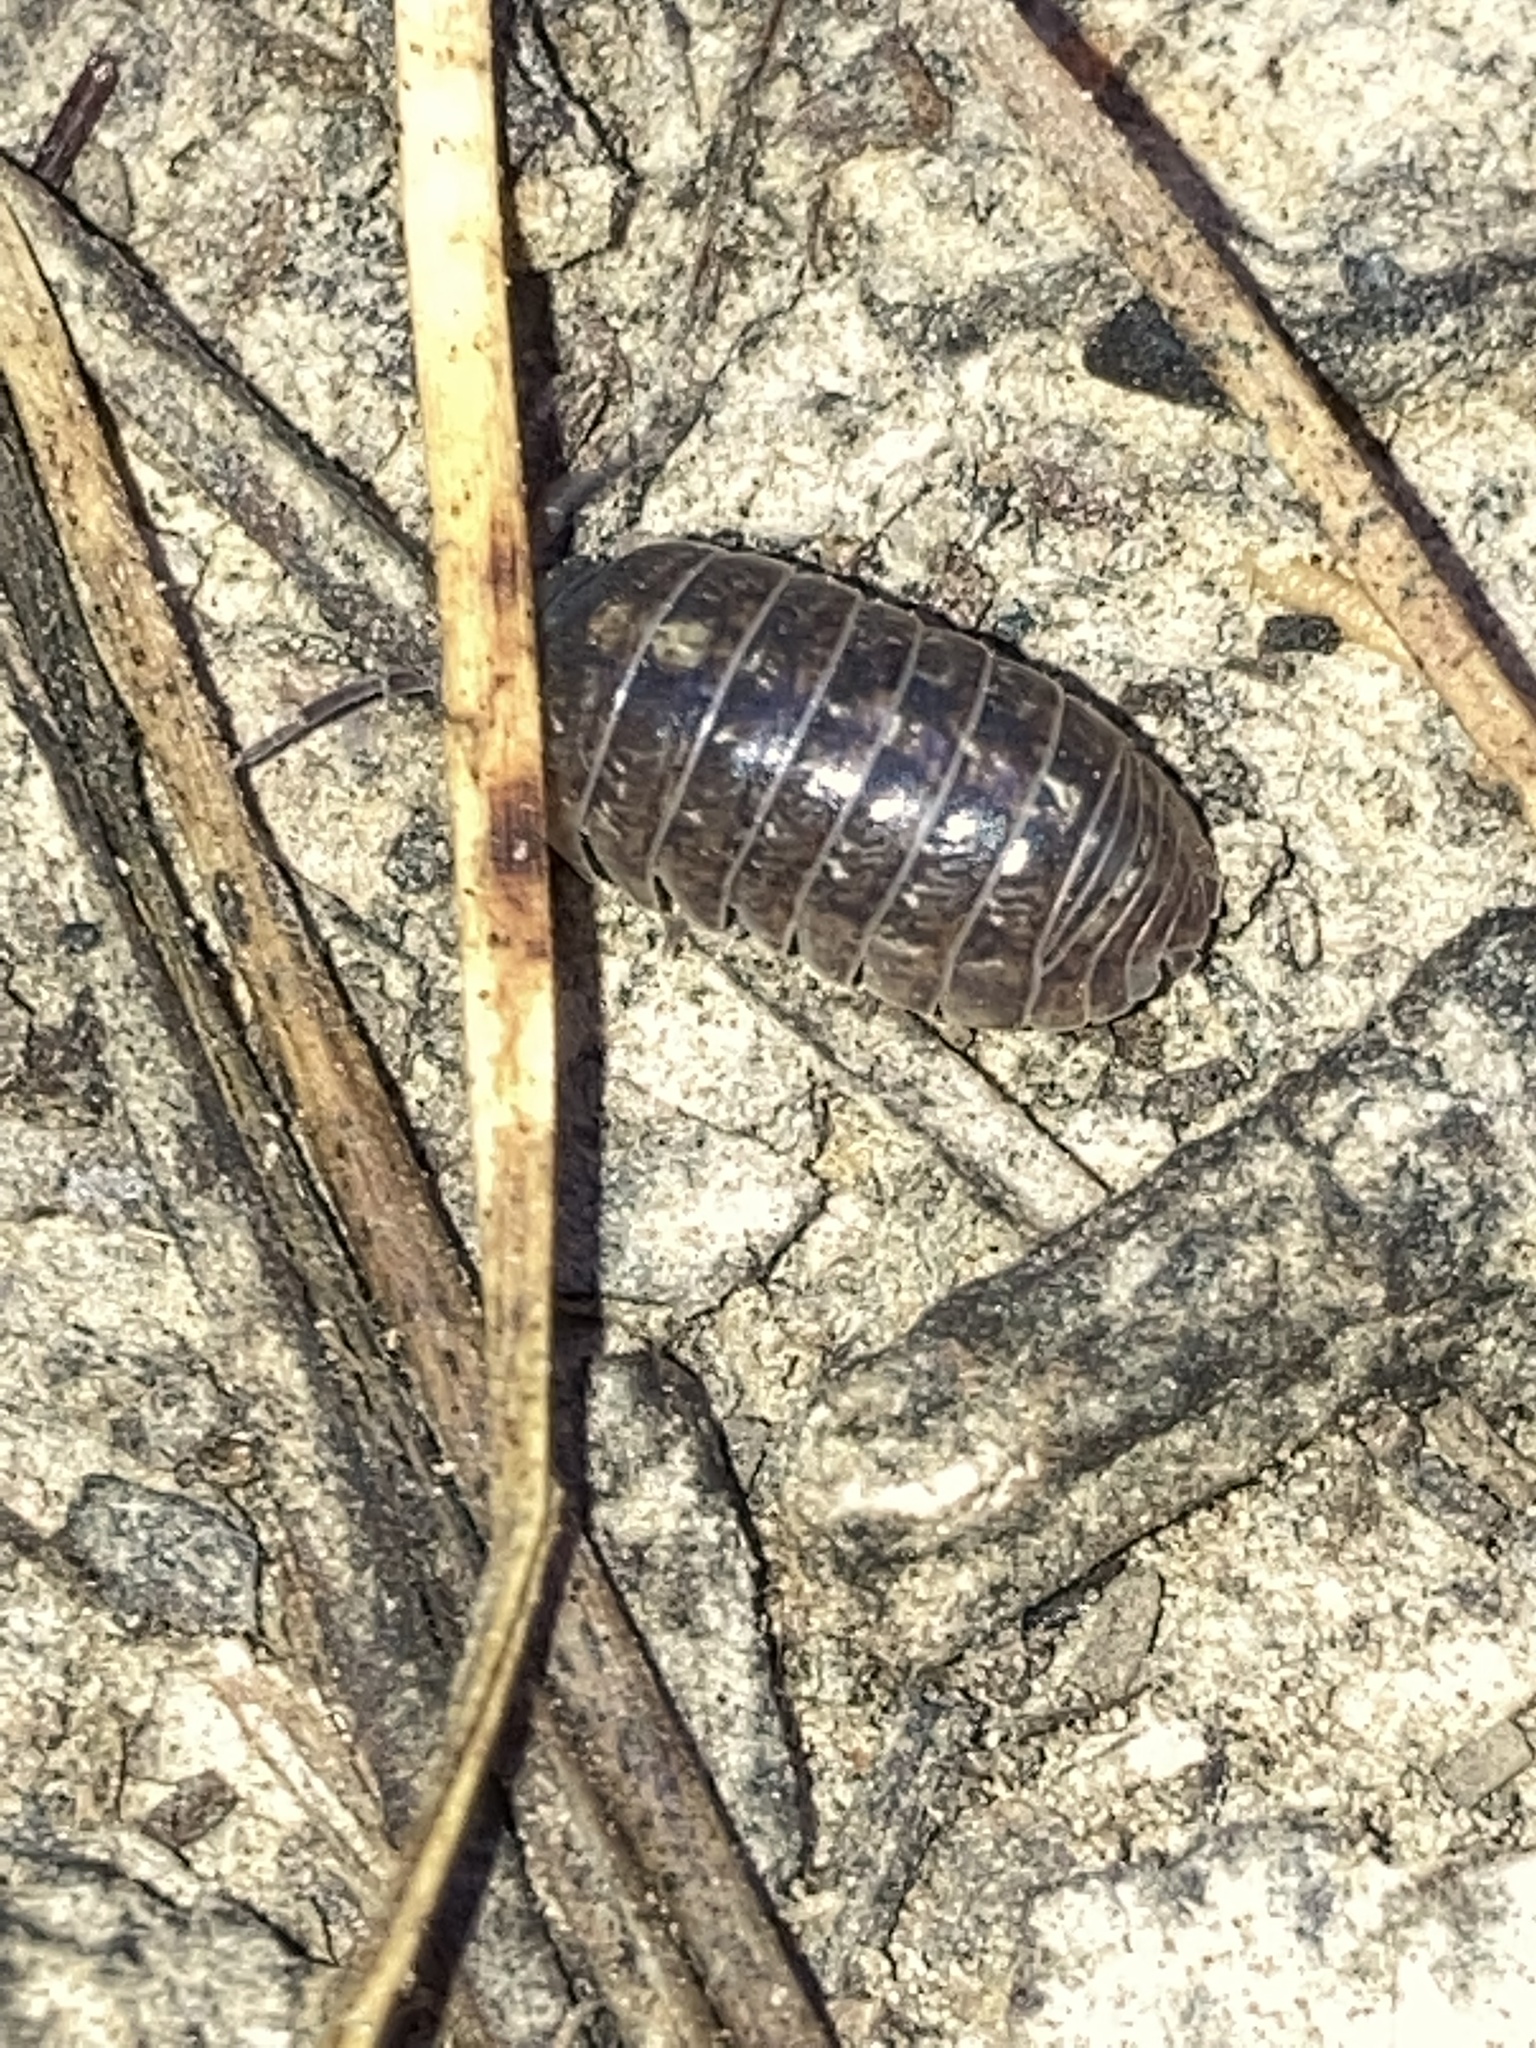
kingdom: Animalia
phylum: Arthropoda
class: Malacostraca
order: Isopoda
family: Armadillidiidae
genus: Armadillidium
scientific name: Armadillidium vulgare
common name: Common pill woodlouse
